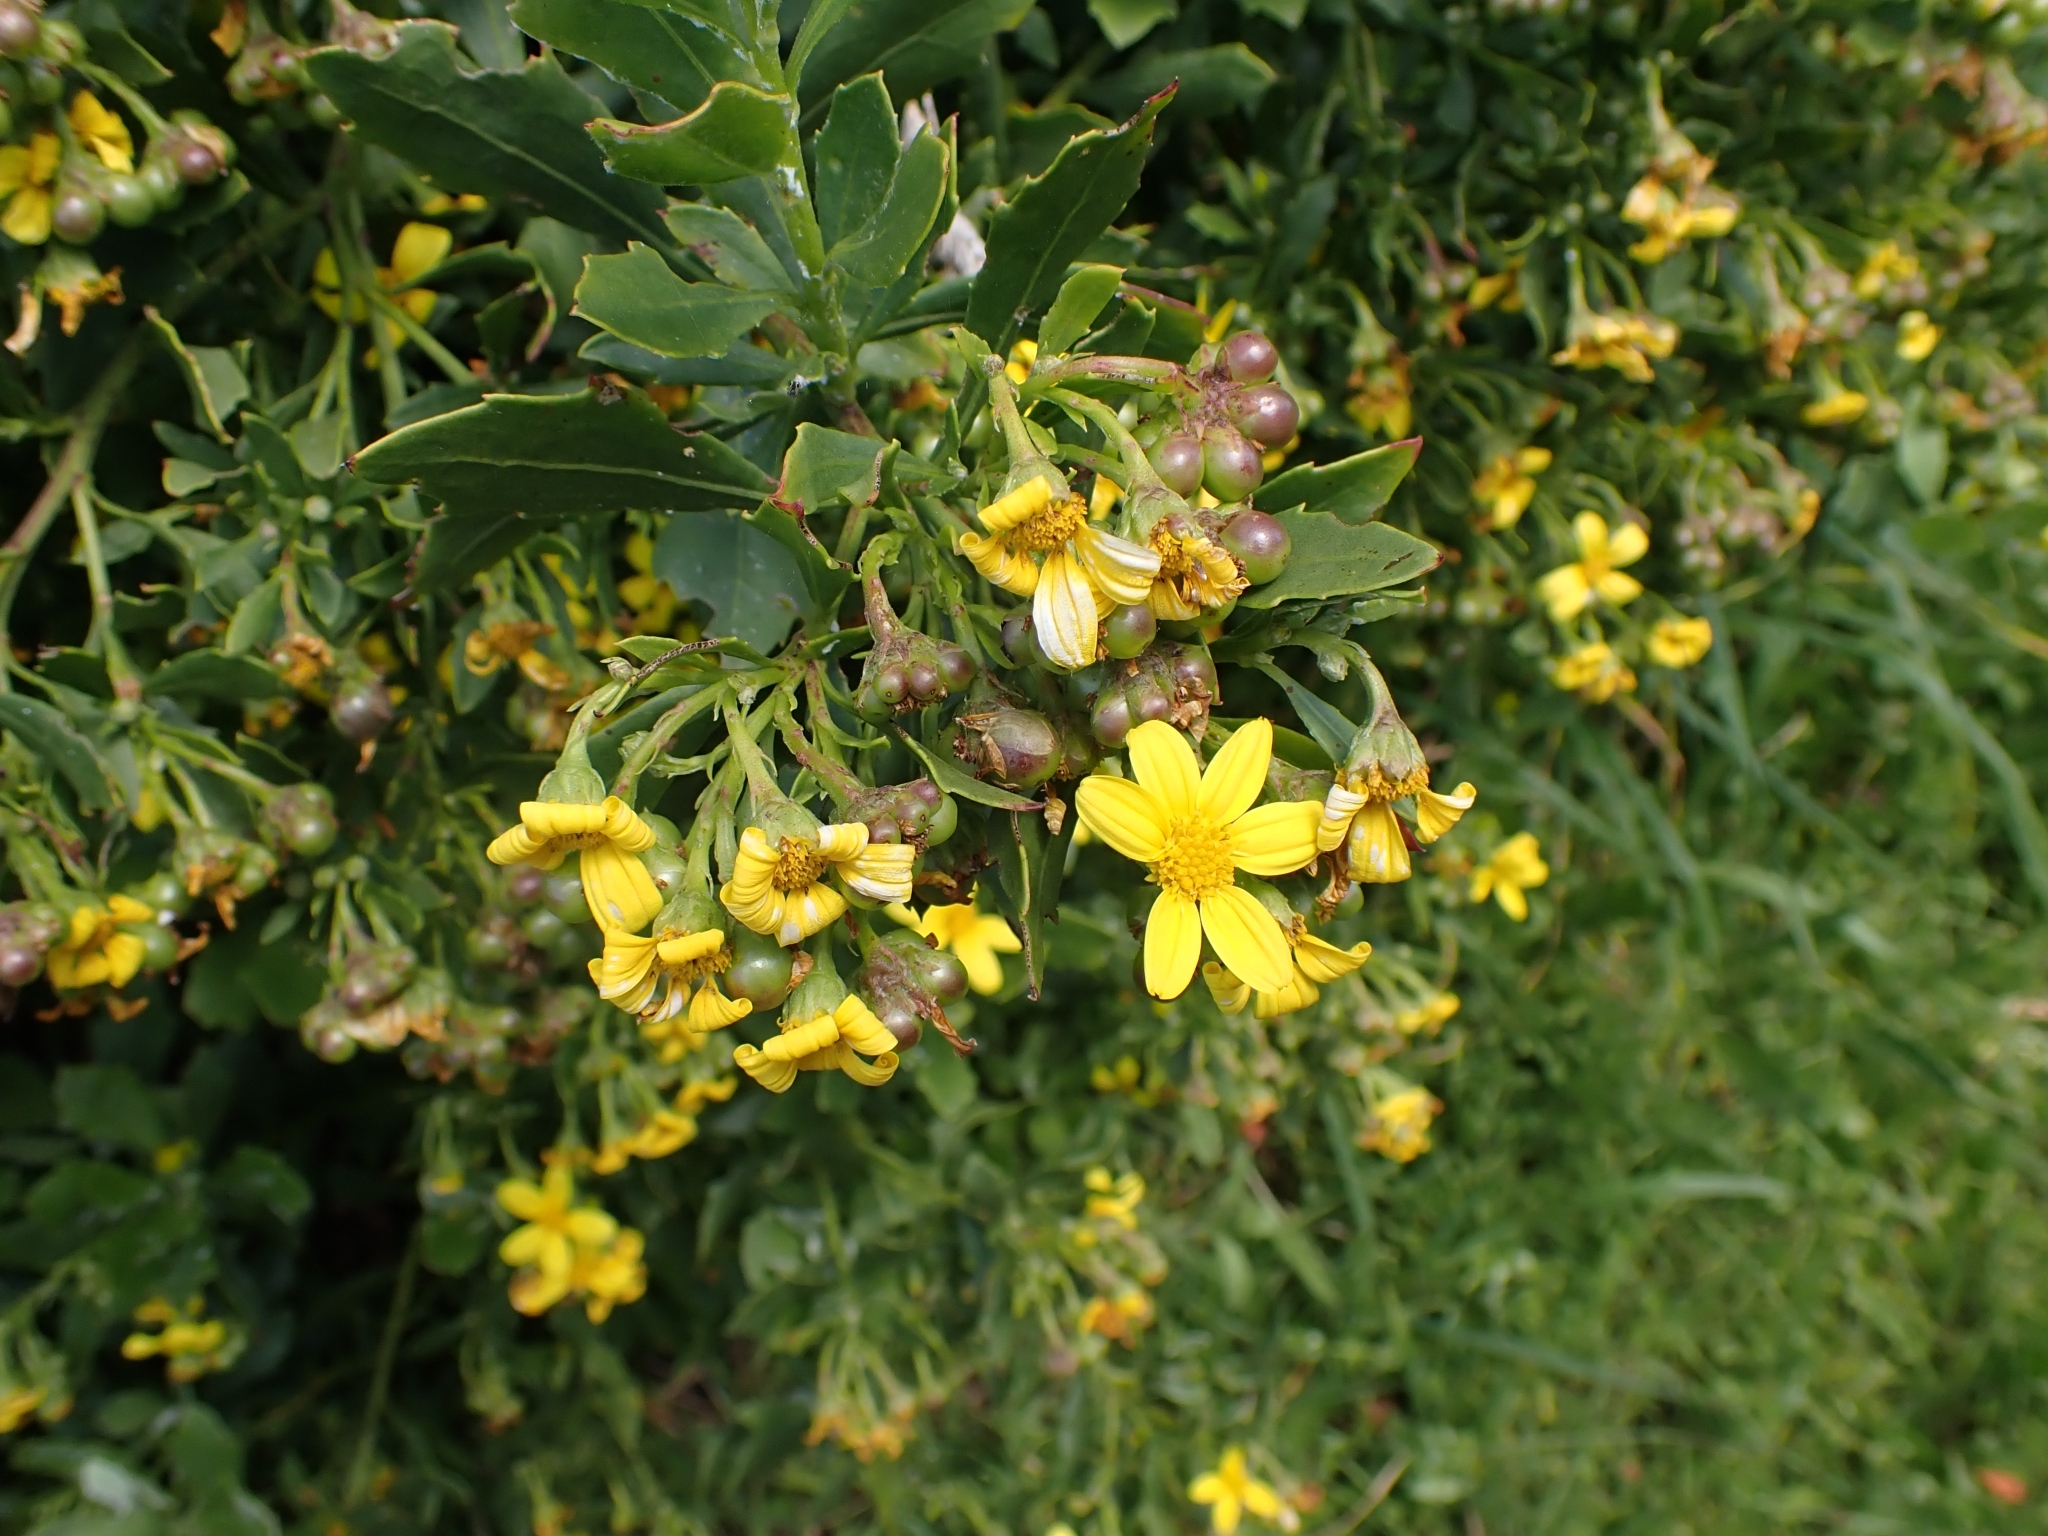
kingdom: Plantae
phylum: Tracheophyta
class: Magnoliopsida
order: Asterales
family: Asteraceae
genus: Osteospermum
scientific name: Osteospermum moniliferum
